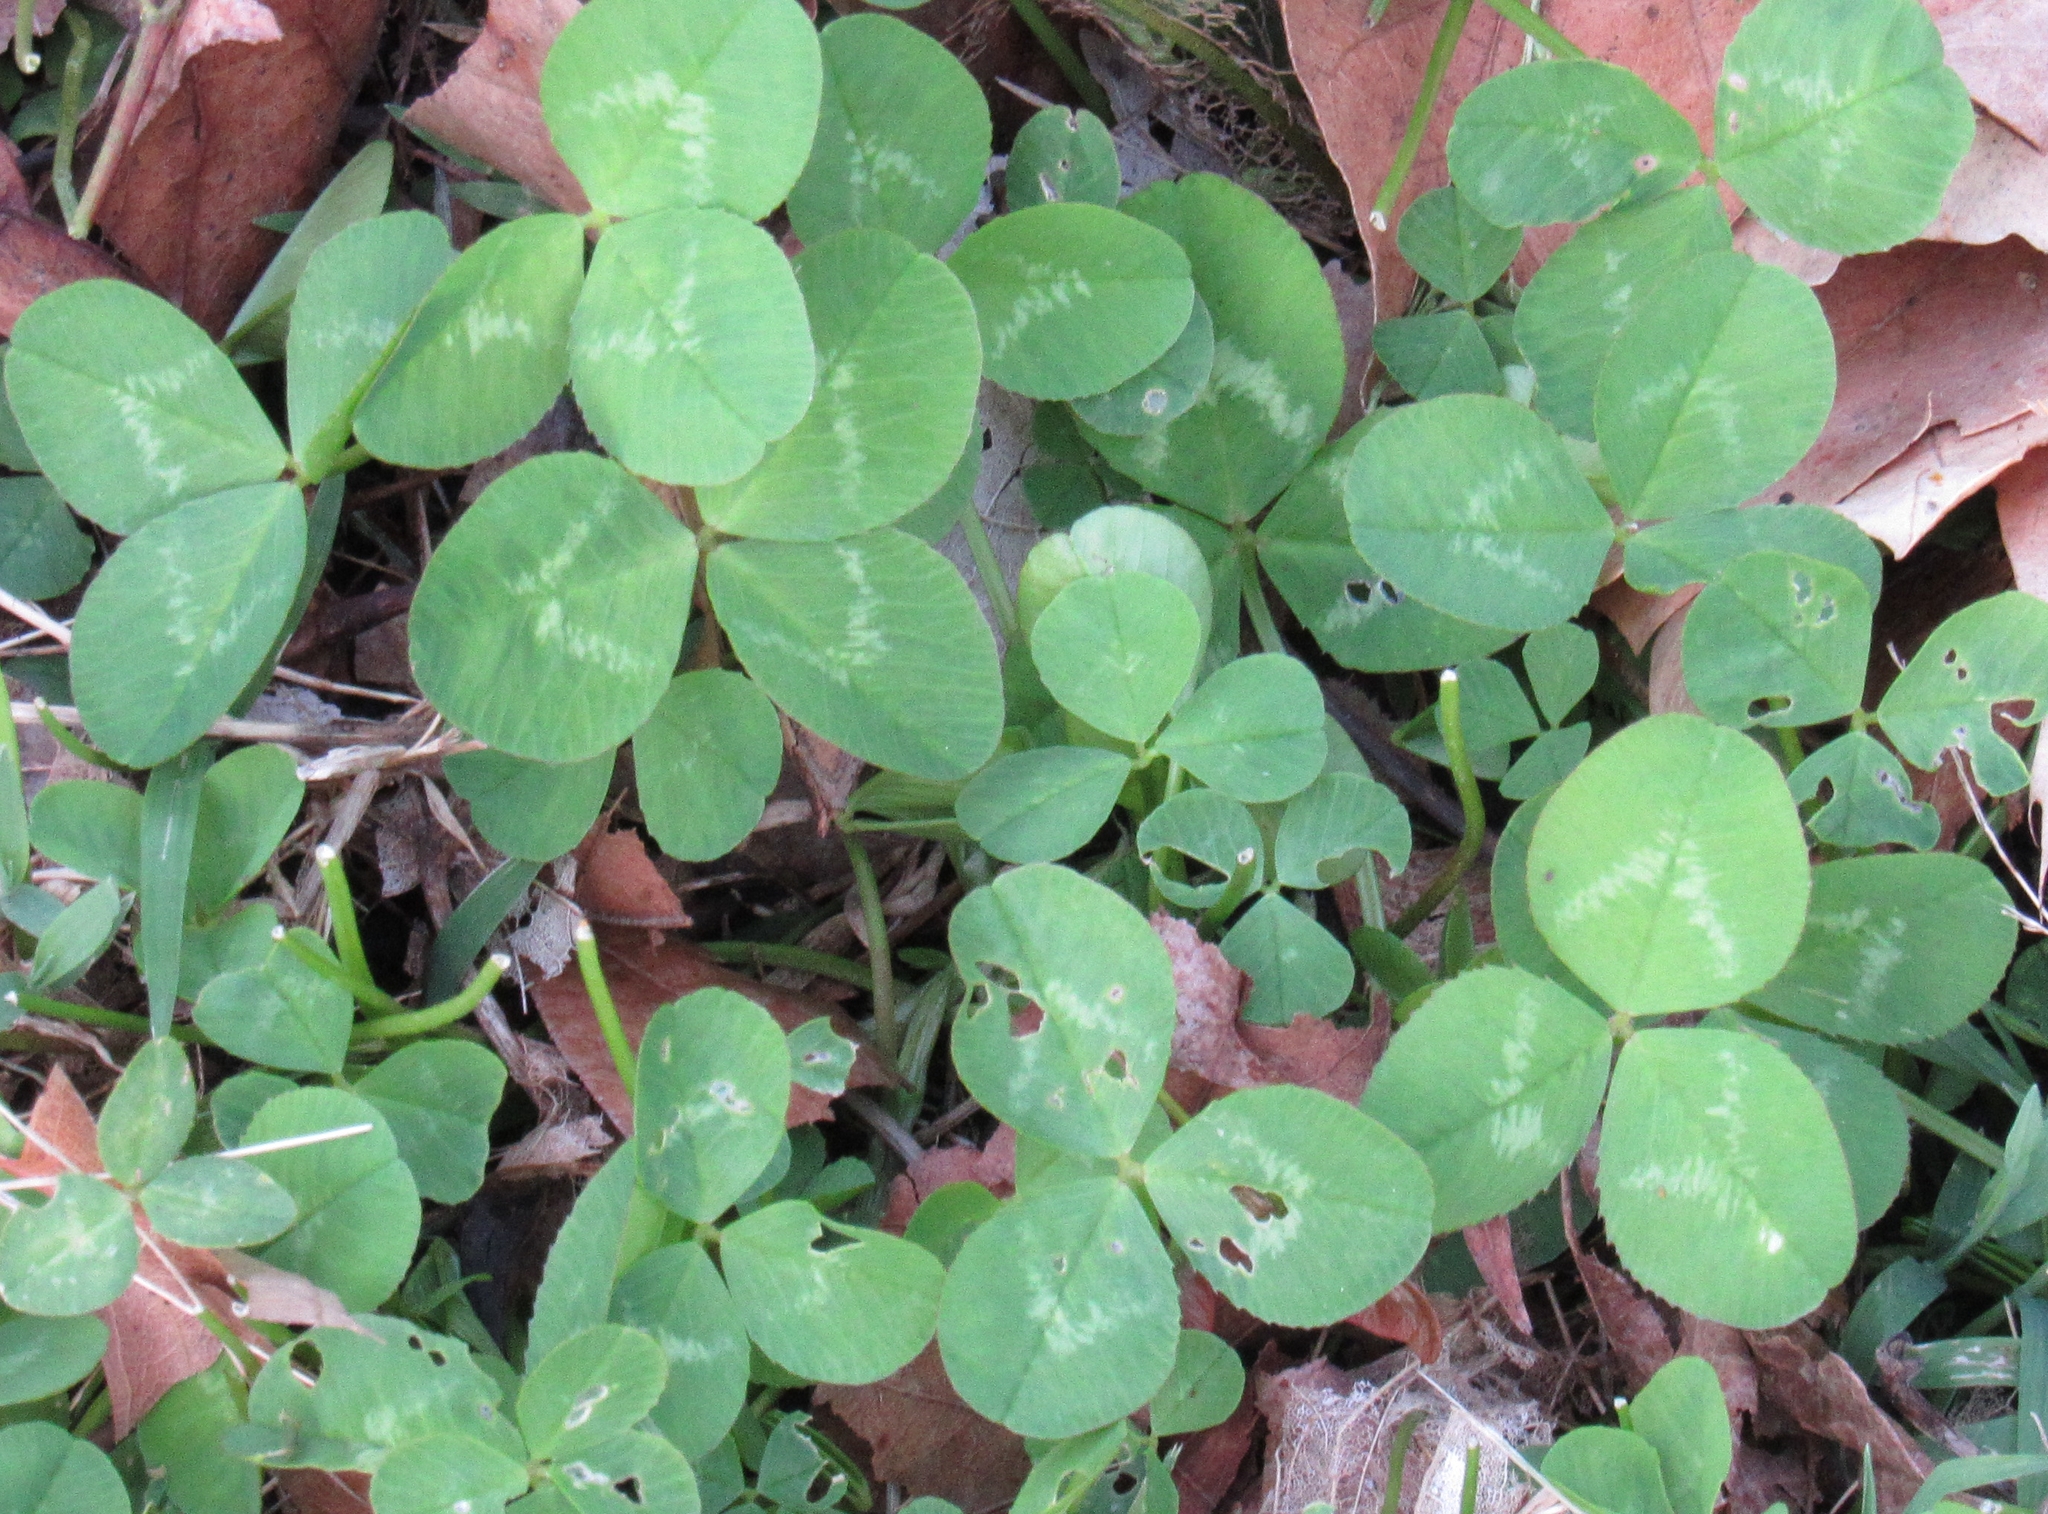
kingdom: Plantae
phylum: Tracheophyta
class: Magnoliopsida
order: Fabales
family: Fabaceae
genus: Trifolium
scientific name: Trifolium repens
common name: White clover
